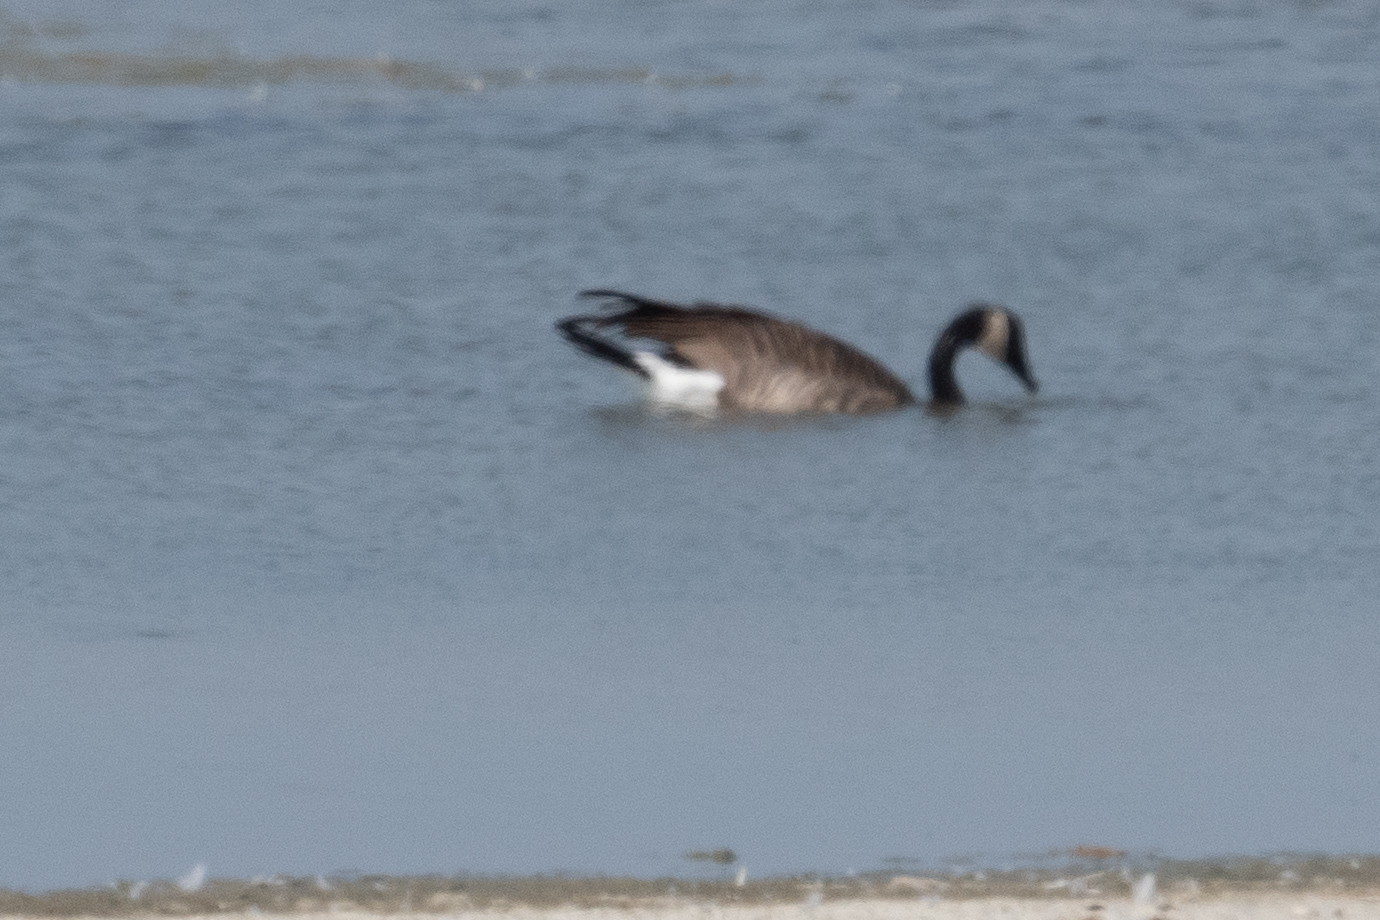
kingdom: Animalia
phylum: Chordata
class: Aves
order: Anseriformes
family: Anatidae
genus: Branta
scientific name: Branta canadensis
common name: Canada goose
